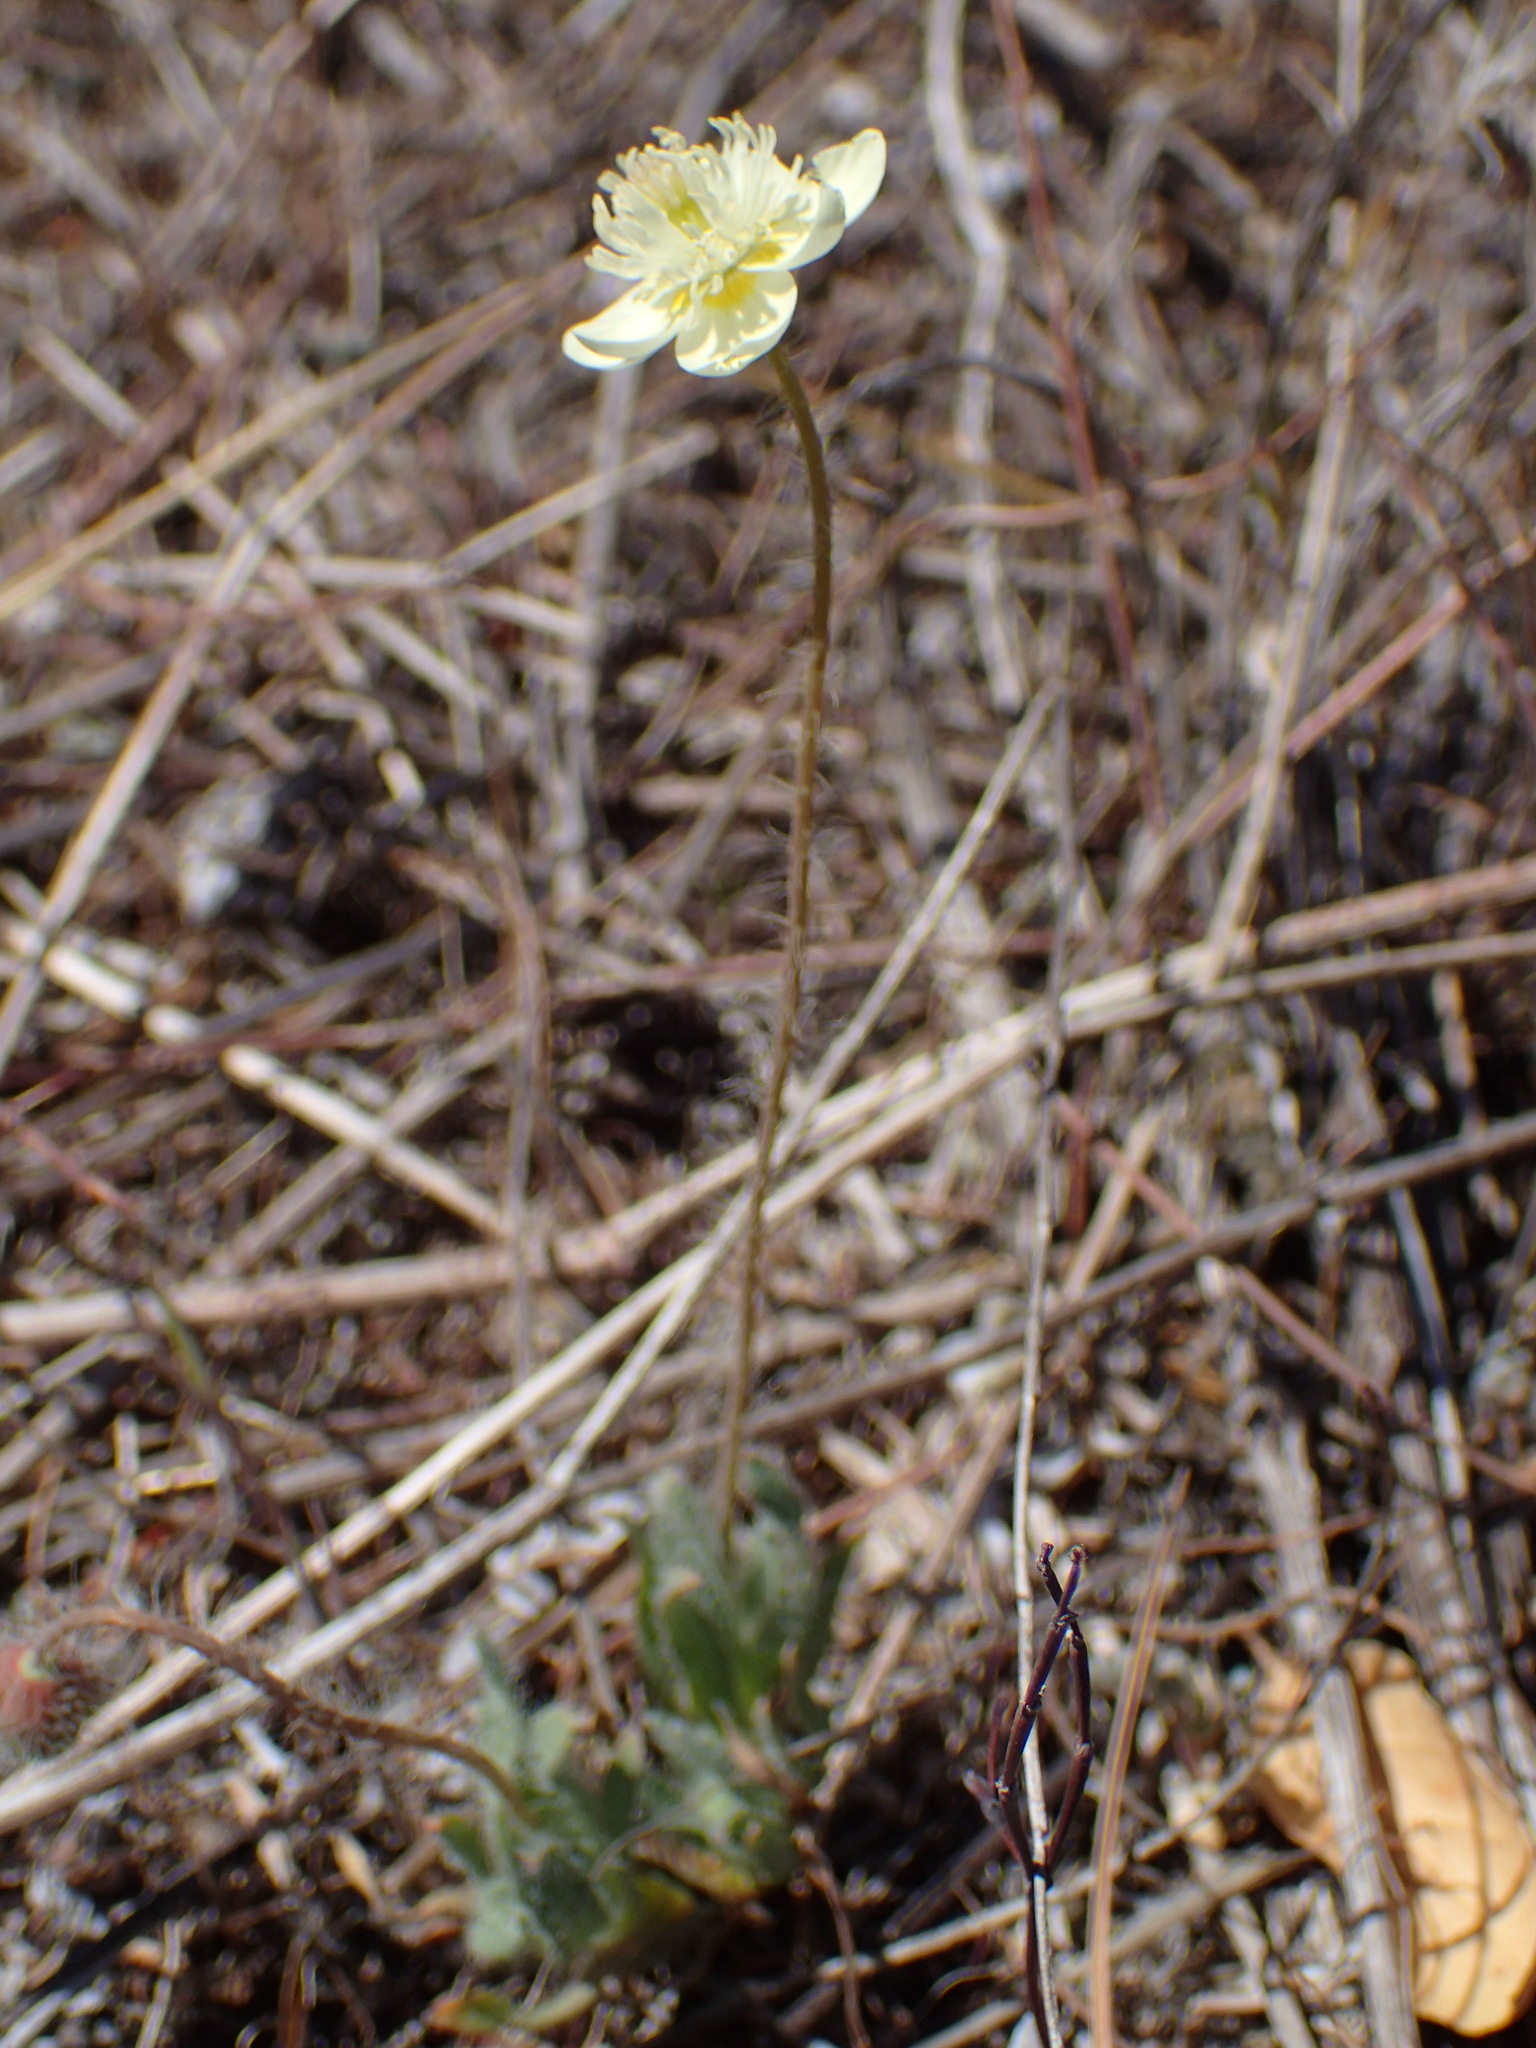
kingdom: Plantae
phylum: Tracheophyta
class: Magnoliopsida
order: Ranunculales
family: Papaveraceae
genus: Platystemon
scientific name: Platystemon californicus
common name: Cream-cups
